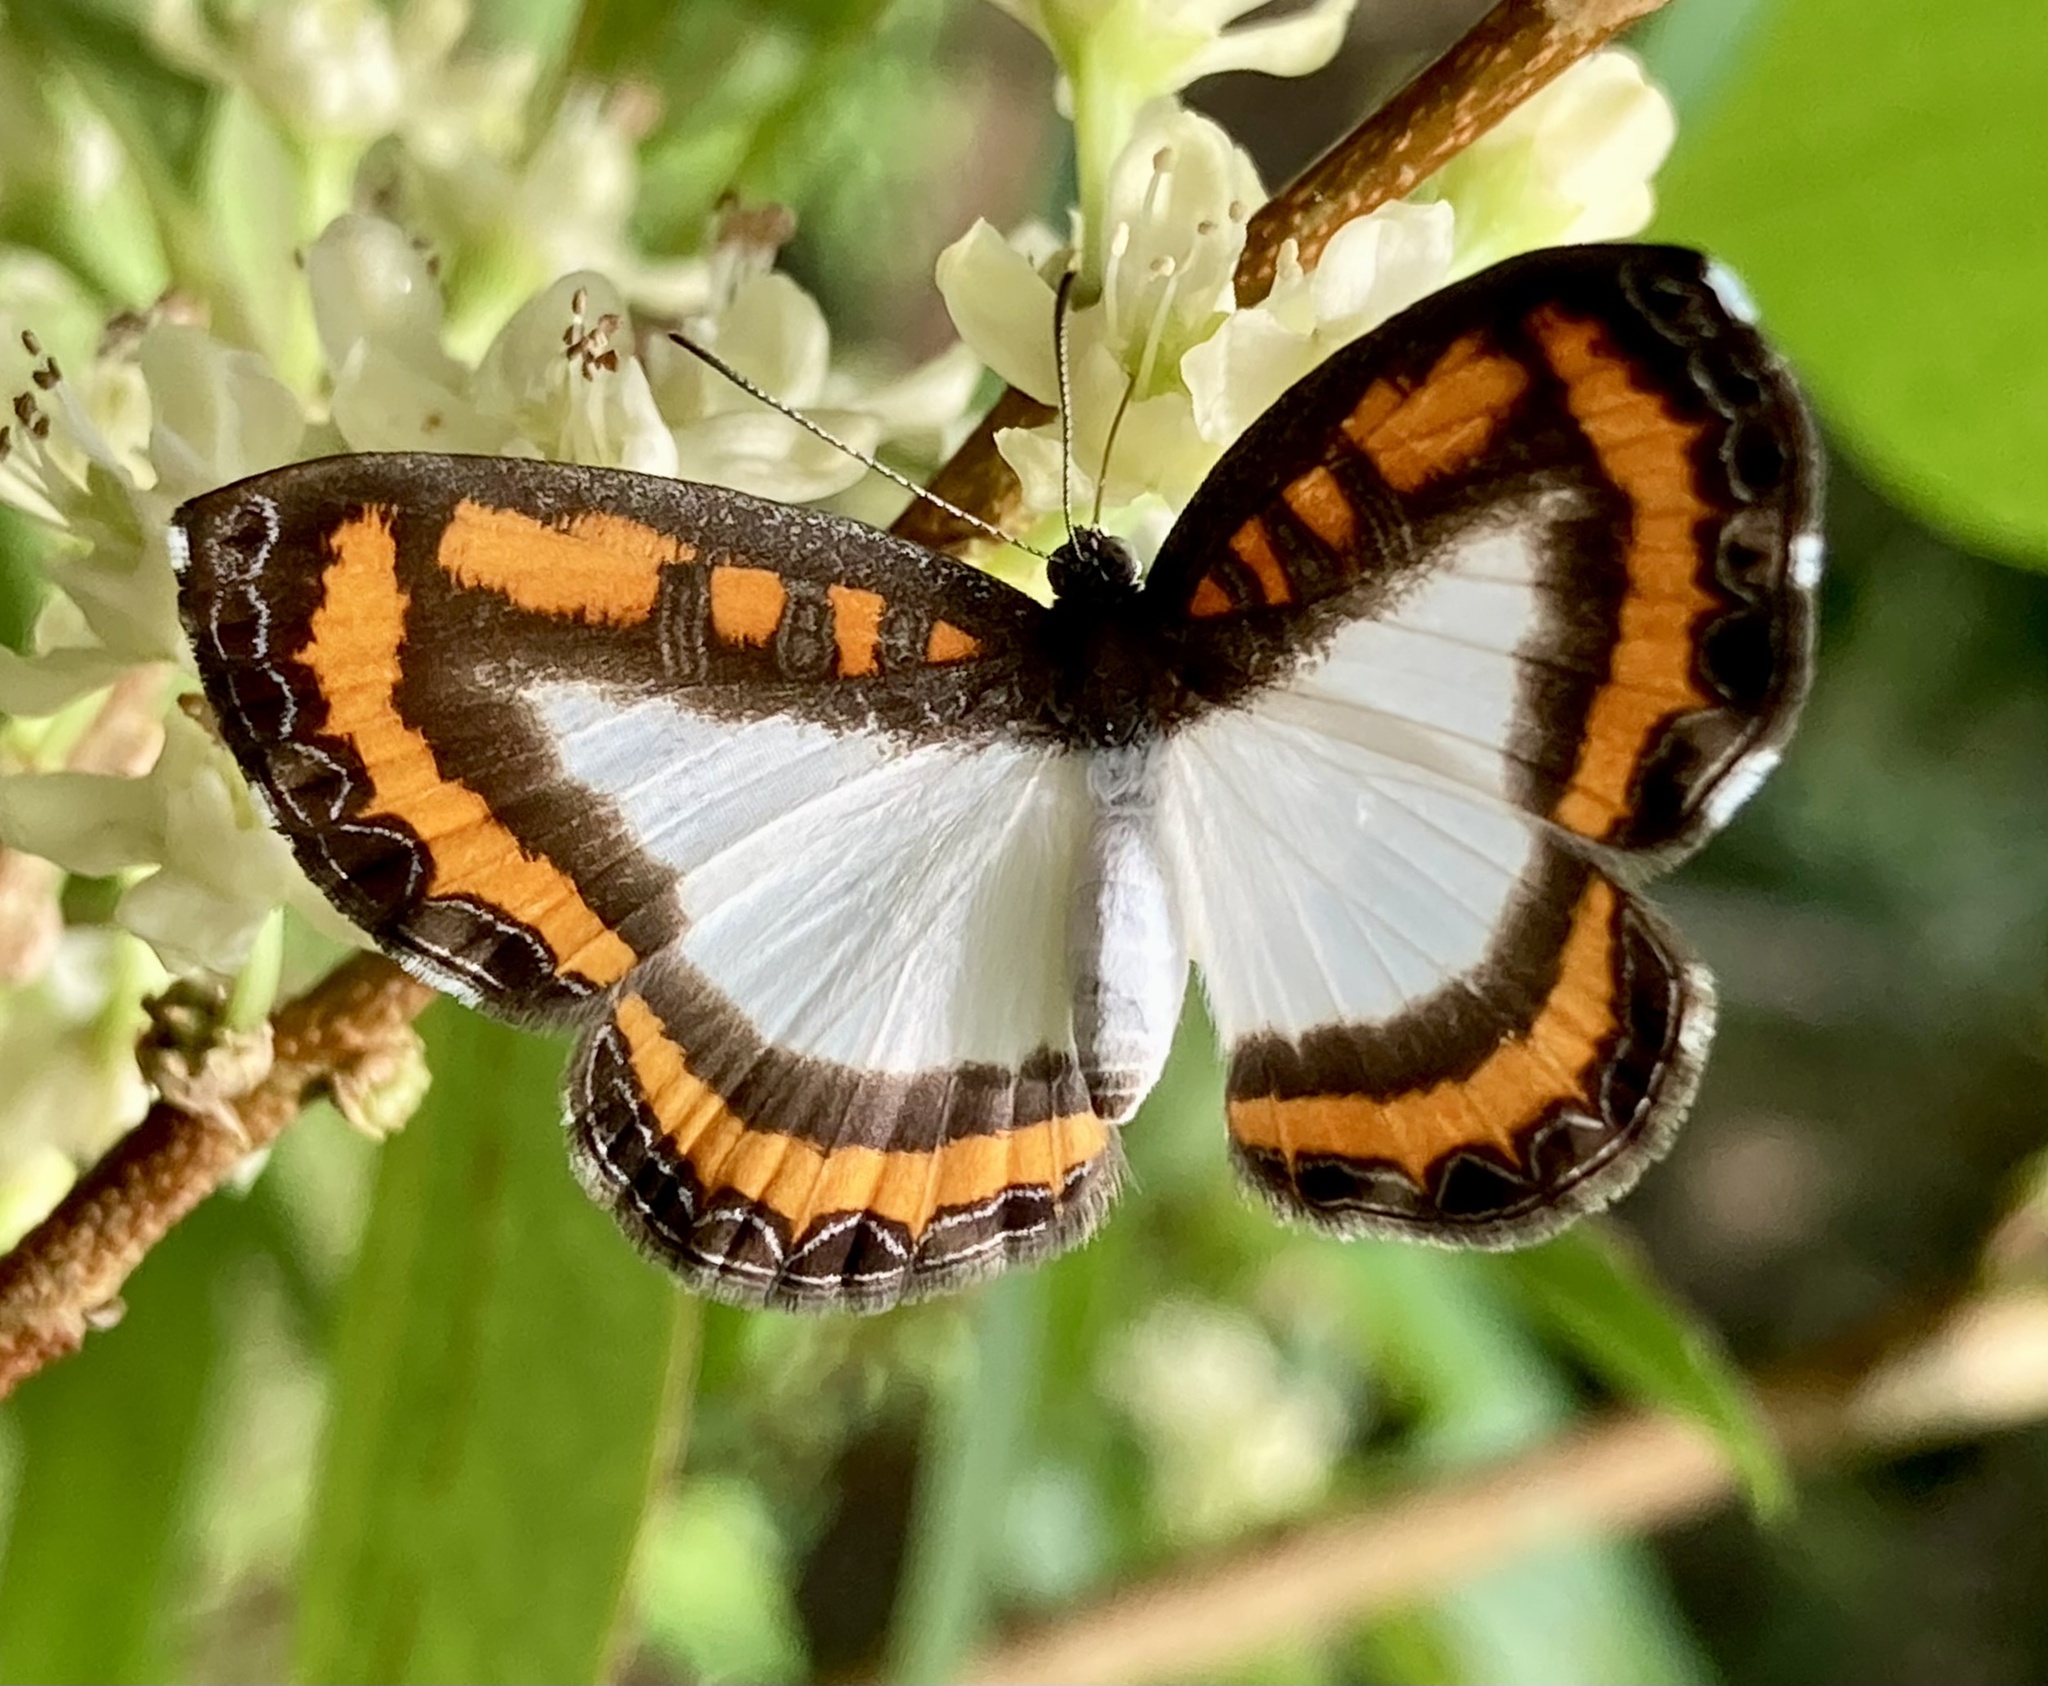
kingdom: Animalia
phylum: Arthropoda
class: Insecta
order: Lepidoptera
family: Riodinidae
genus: Nymula
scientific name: Nymula calyce
